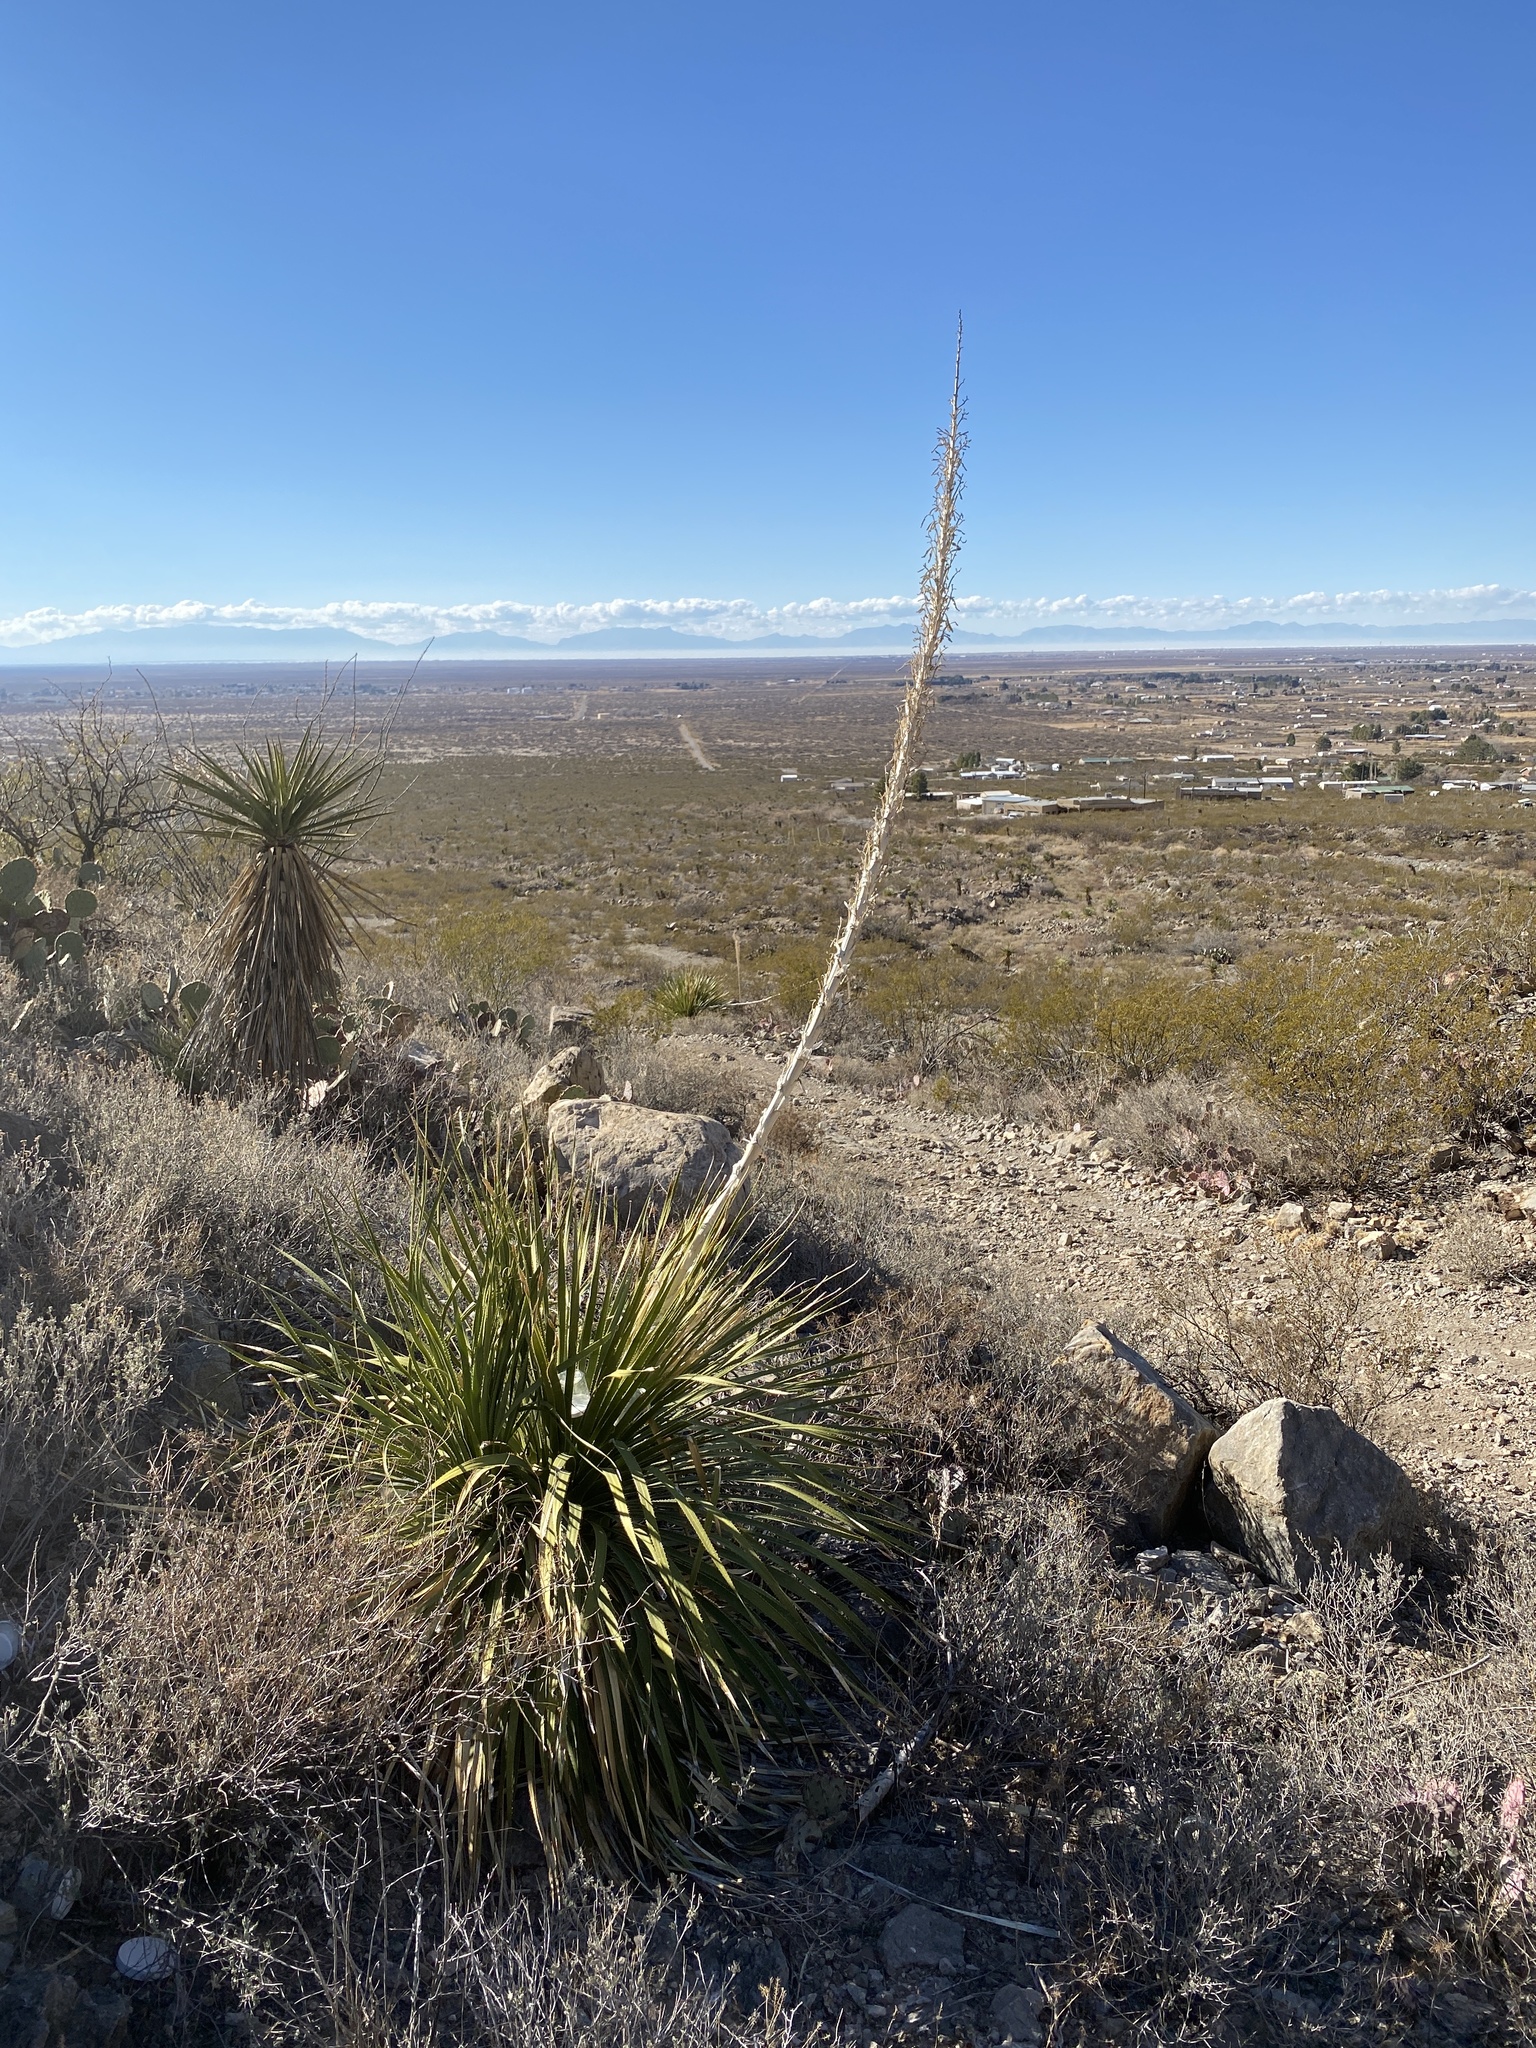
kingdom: Plantae
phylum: Tracheophyta
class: Liliopsida
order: Asparagales
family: Asparagaceae
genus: Dasylirion
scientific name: Dasylirion wheeleri
